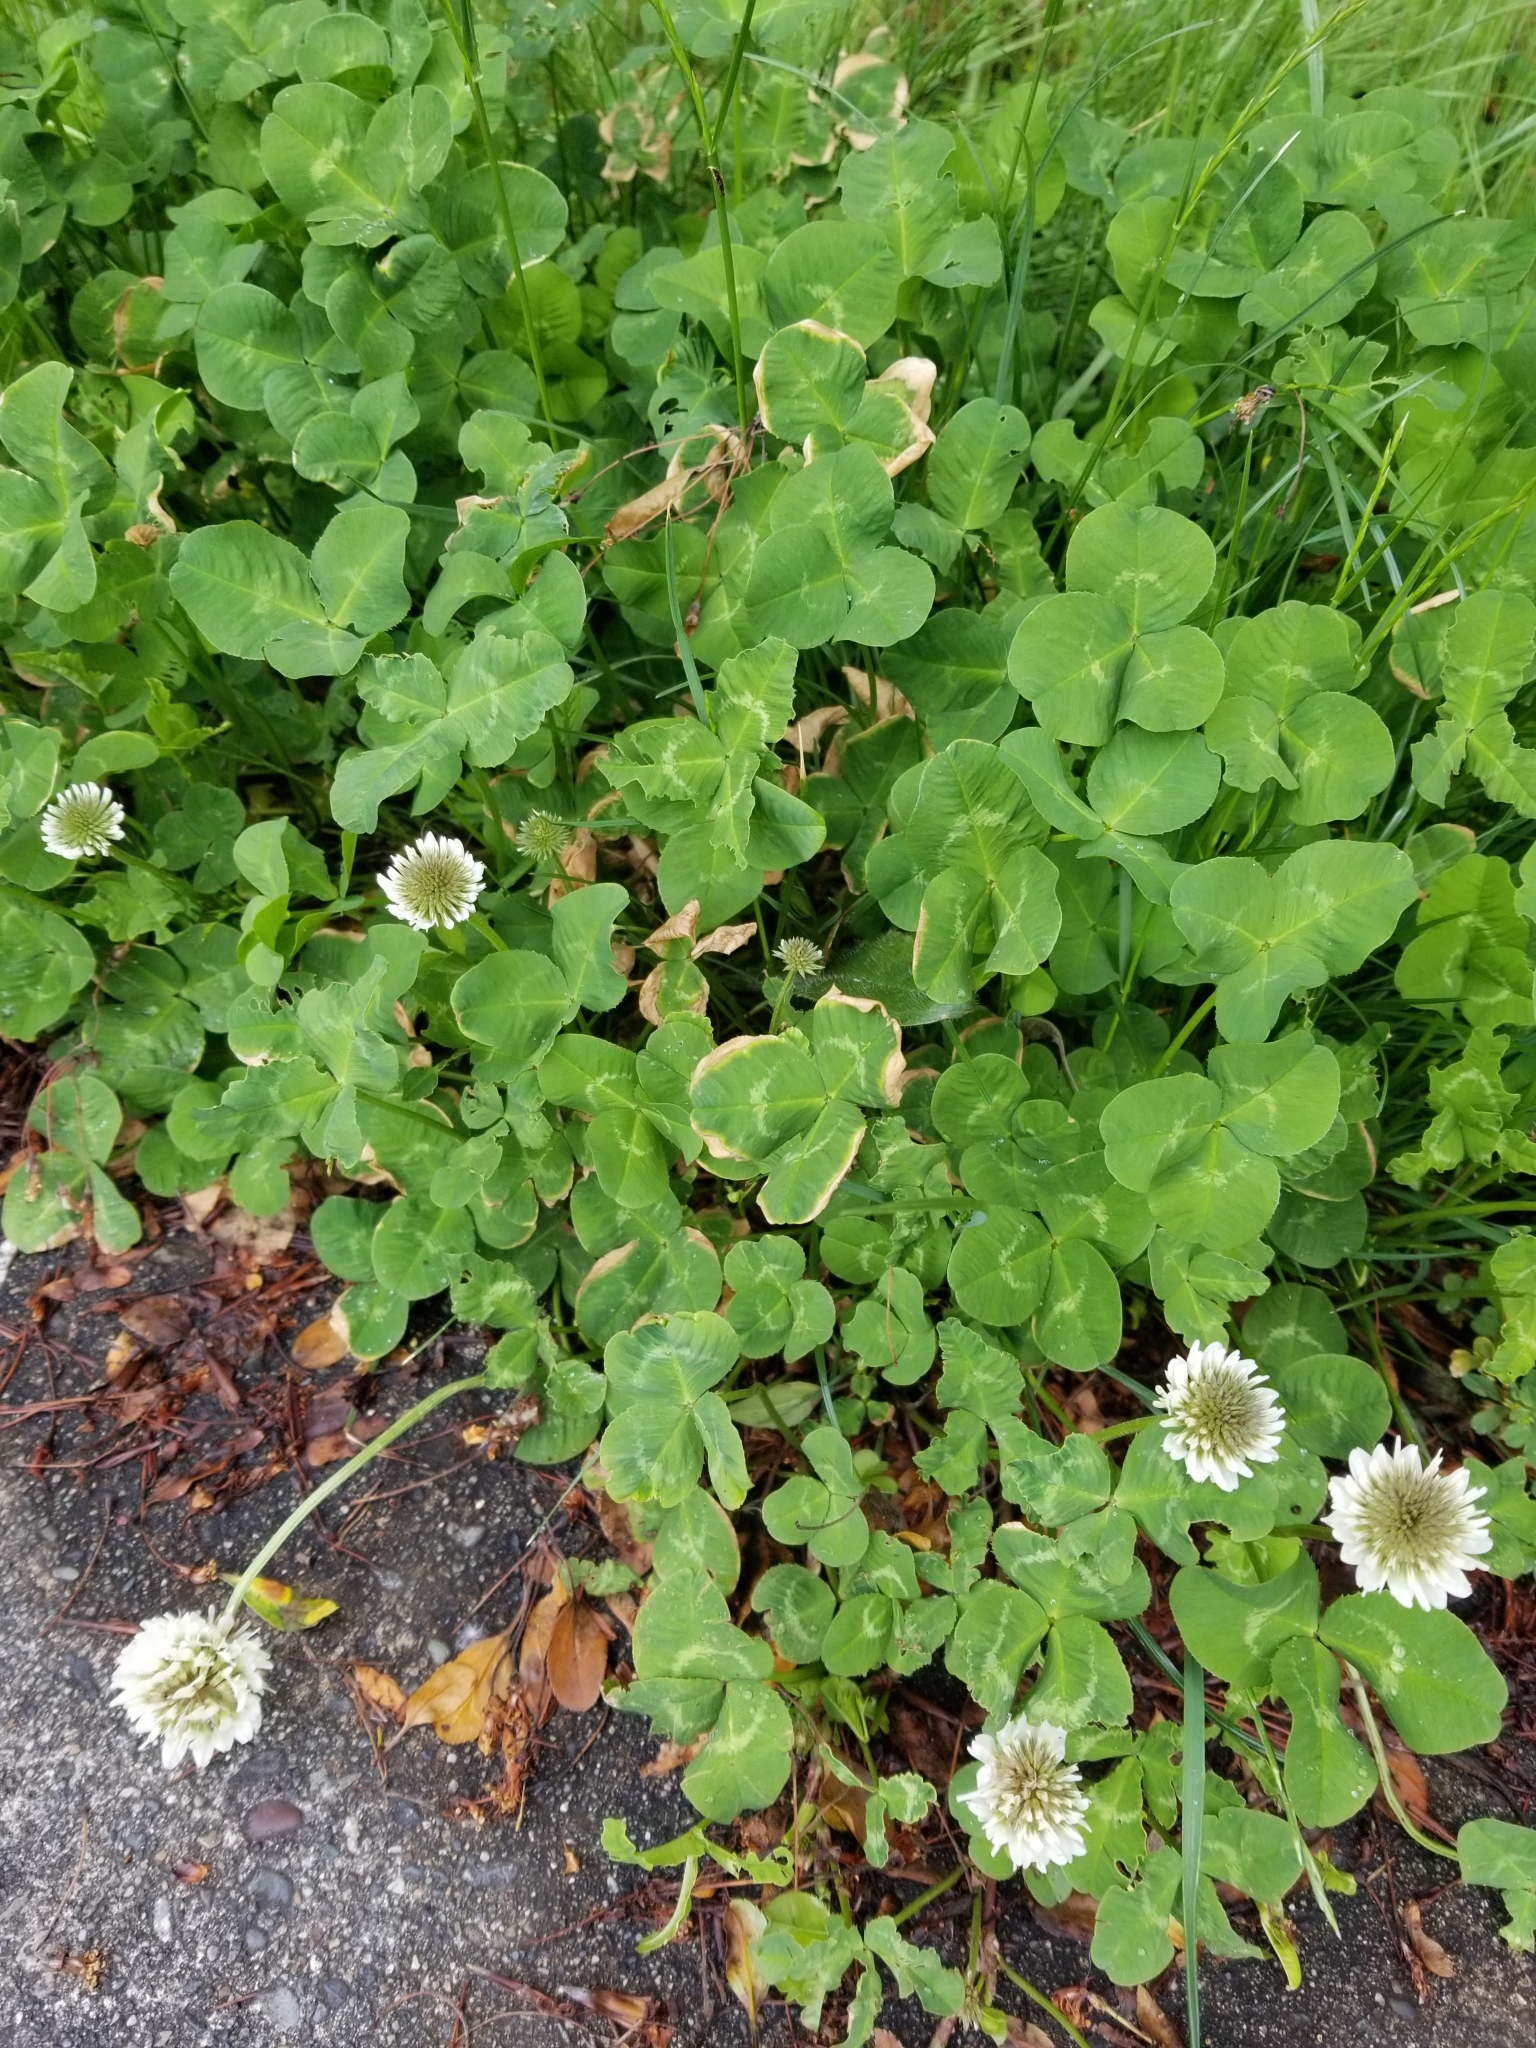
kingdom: Plantae
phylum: Tracheophyta
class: Magnoliopsida
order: Fabales
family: Fabaceae
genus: Trifolium
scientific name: Trifolium repens
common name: White clover
